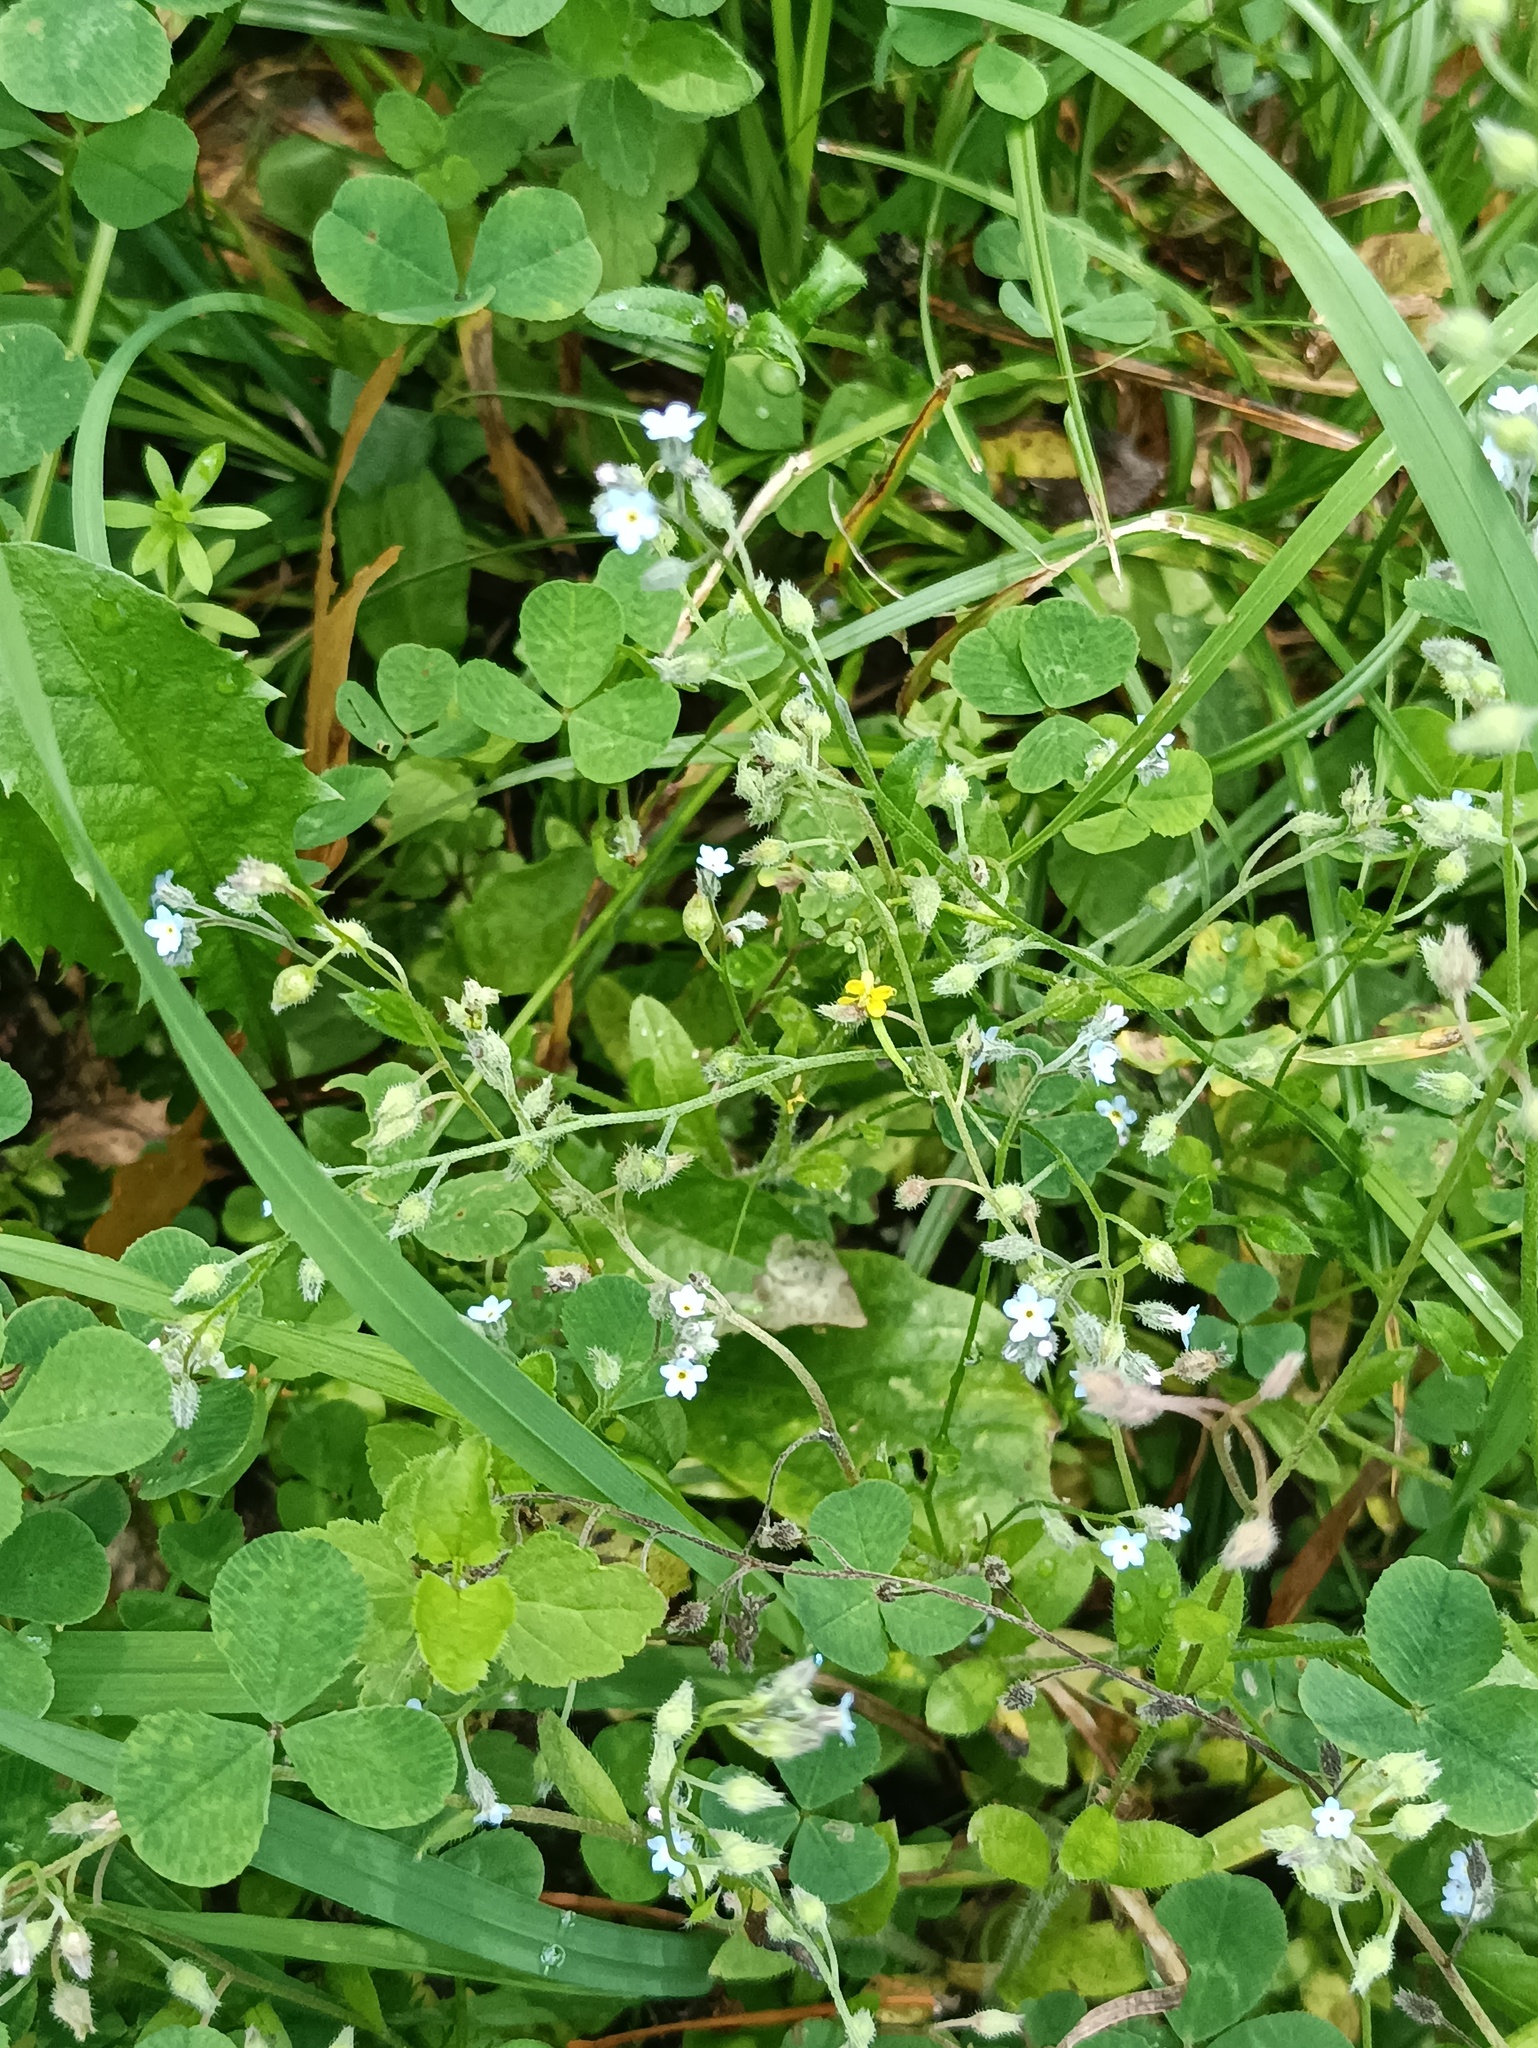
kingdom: Plantae
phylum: Tracheophyta
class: Magnoliopsida
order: Boraginales
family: Boraginaceae
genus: Myosotis
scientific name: Myosotis arvensis
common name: Field forget-me-not
